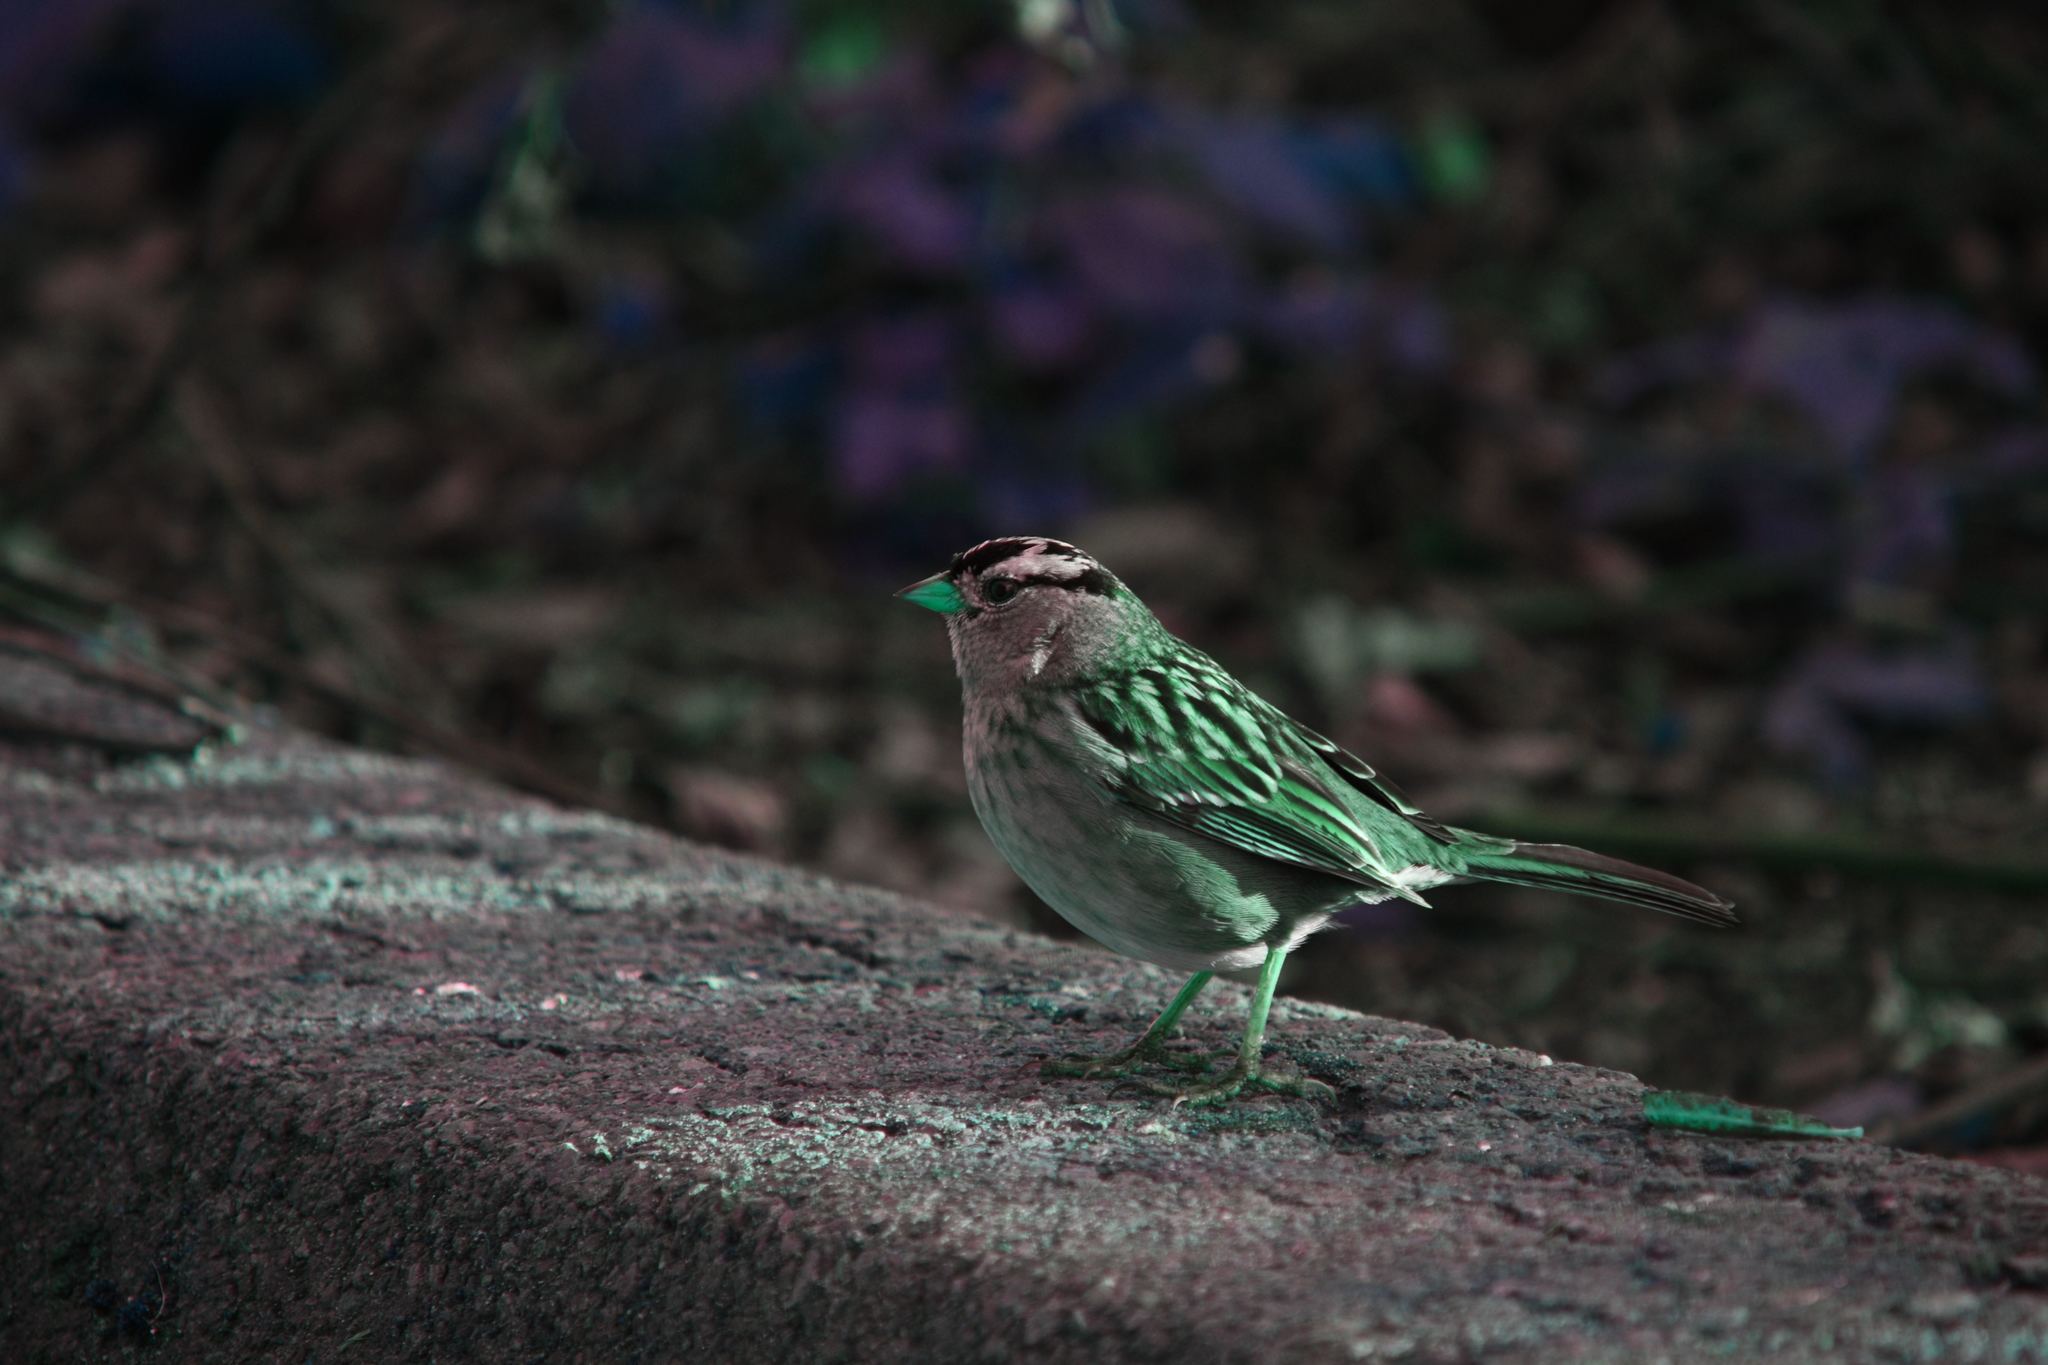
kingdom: Animalia
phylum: Chordata
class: Aves
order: Passeriformes
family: Passerellidae
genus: Zonotrichia
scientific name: Zonotrichia leucophrys
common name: White-crowned sparrow
